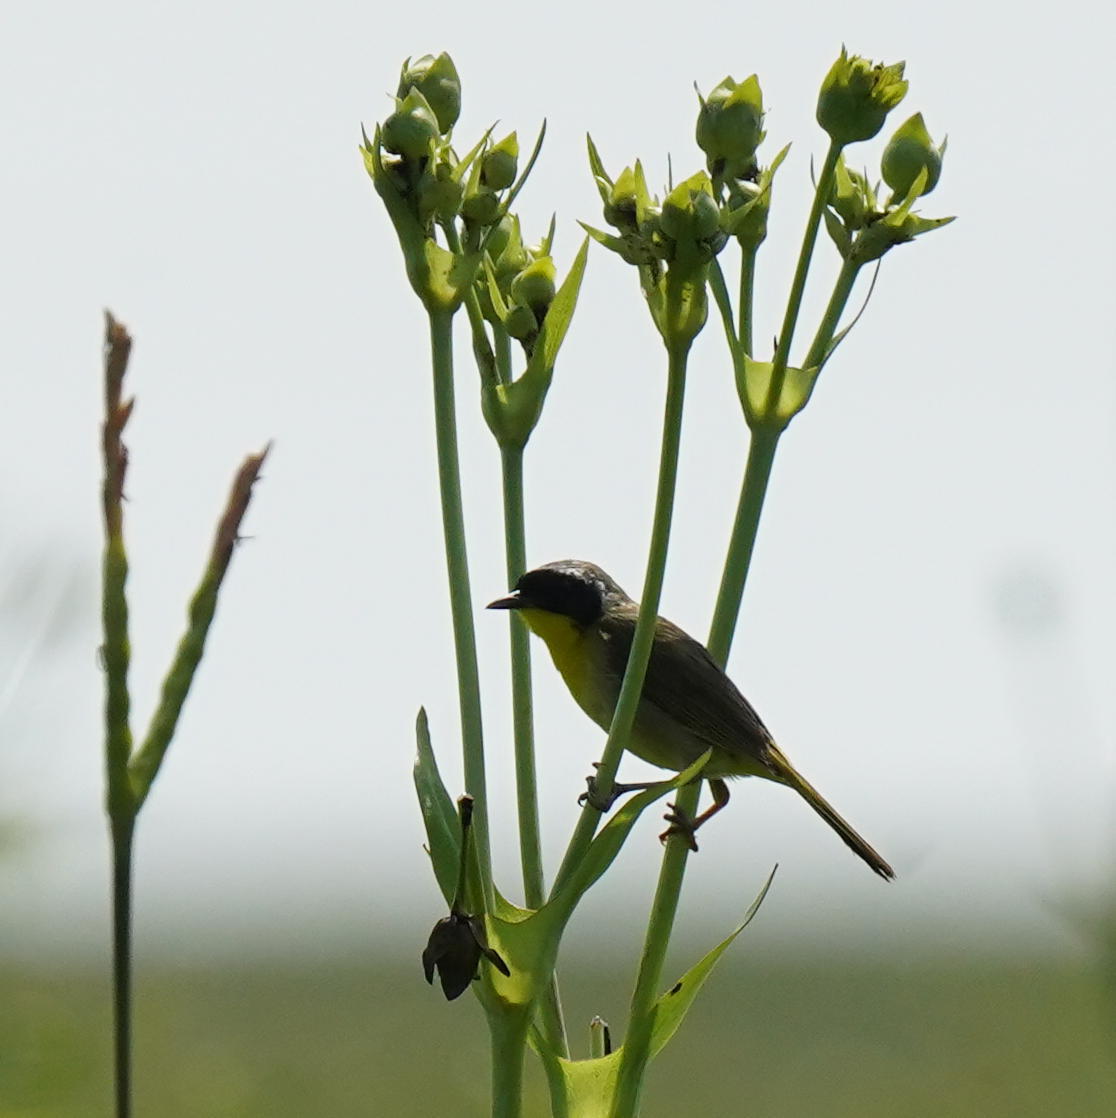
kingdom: Animalia
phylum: Chordata
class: Aves
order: Passeriformes
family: Parulidae
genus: Geothlypis
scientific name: Geothlypis trichas
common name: Common yellowthroat
